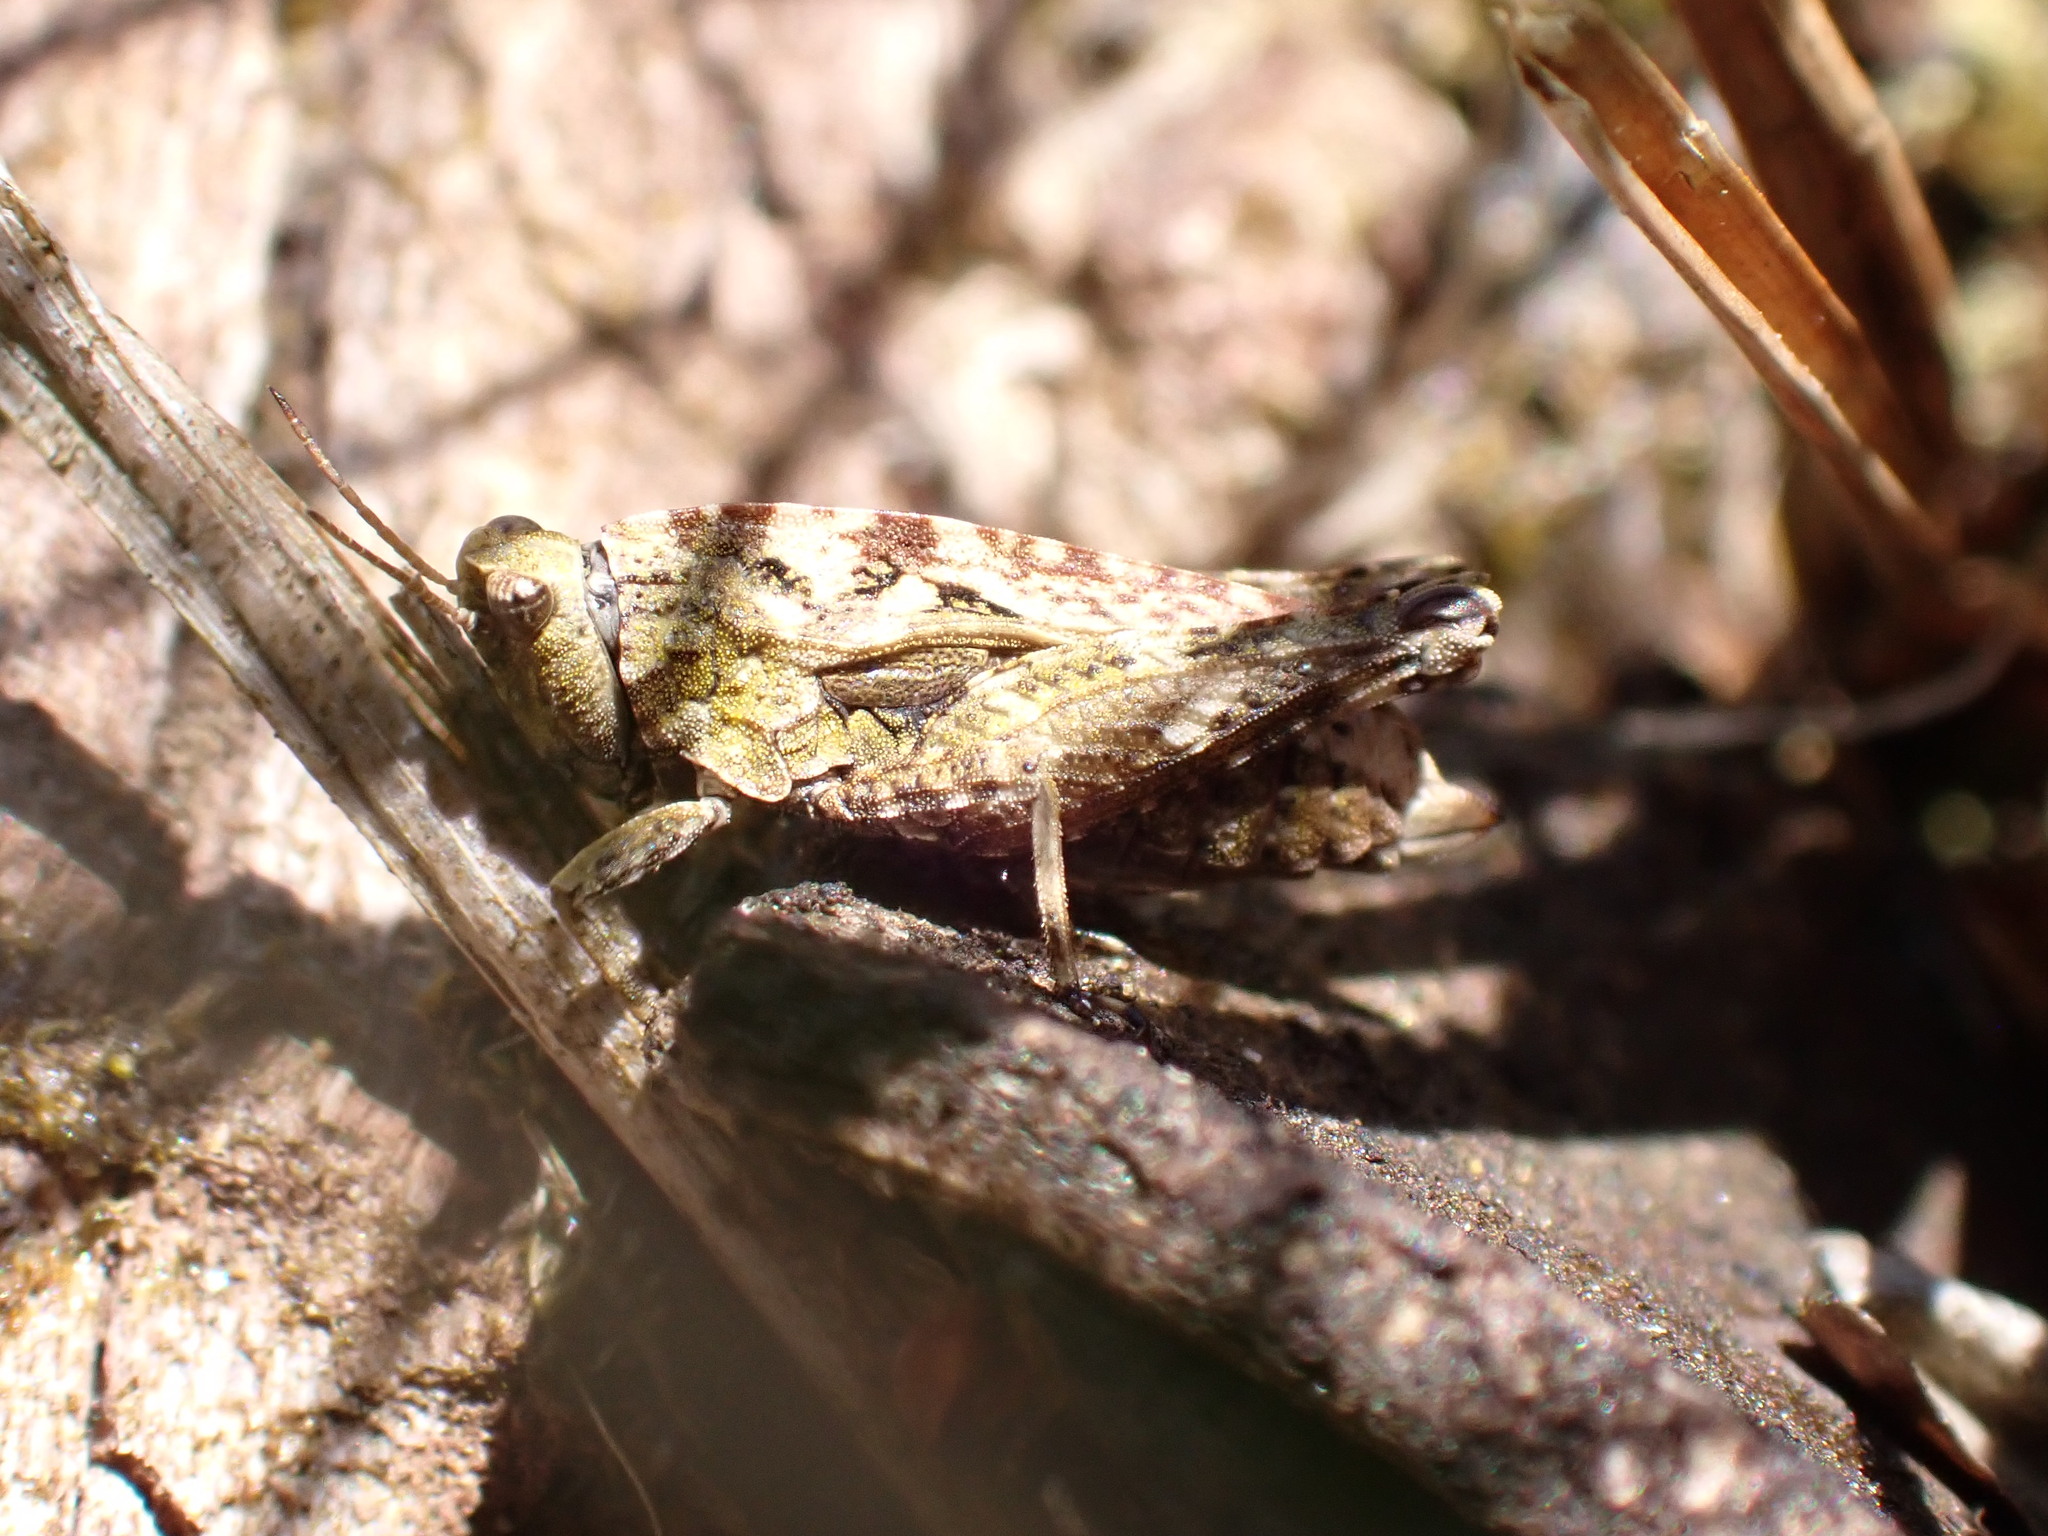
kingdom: Animalia
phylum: Arthropoda
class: Insecta
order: Orthoptera
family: Tetrigidae
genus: Tetrix
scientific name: Tetrix undulata
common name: Common groundhopper
